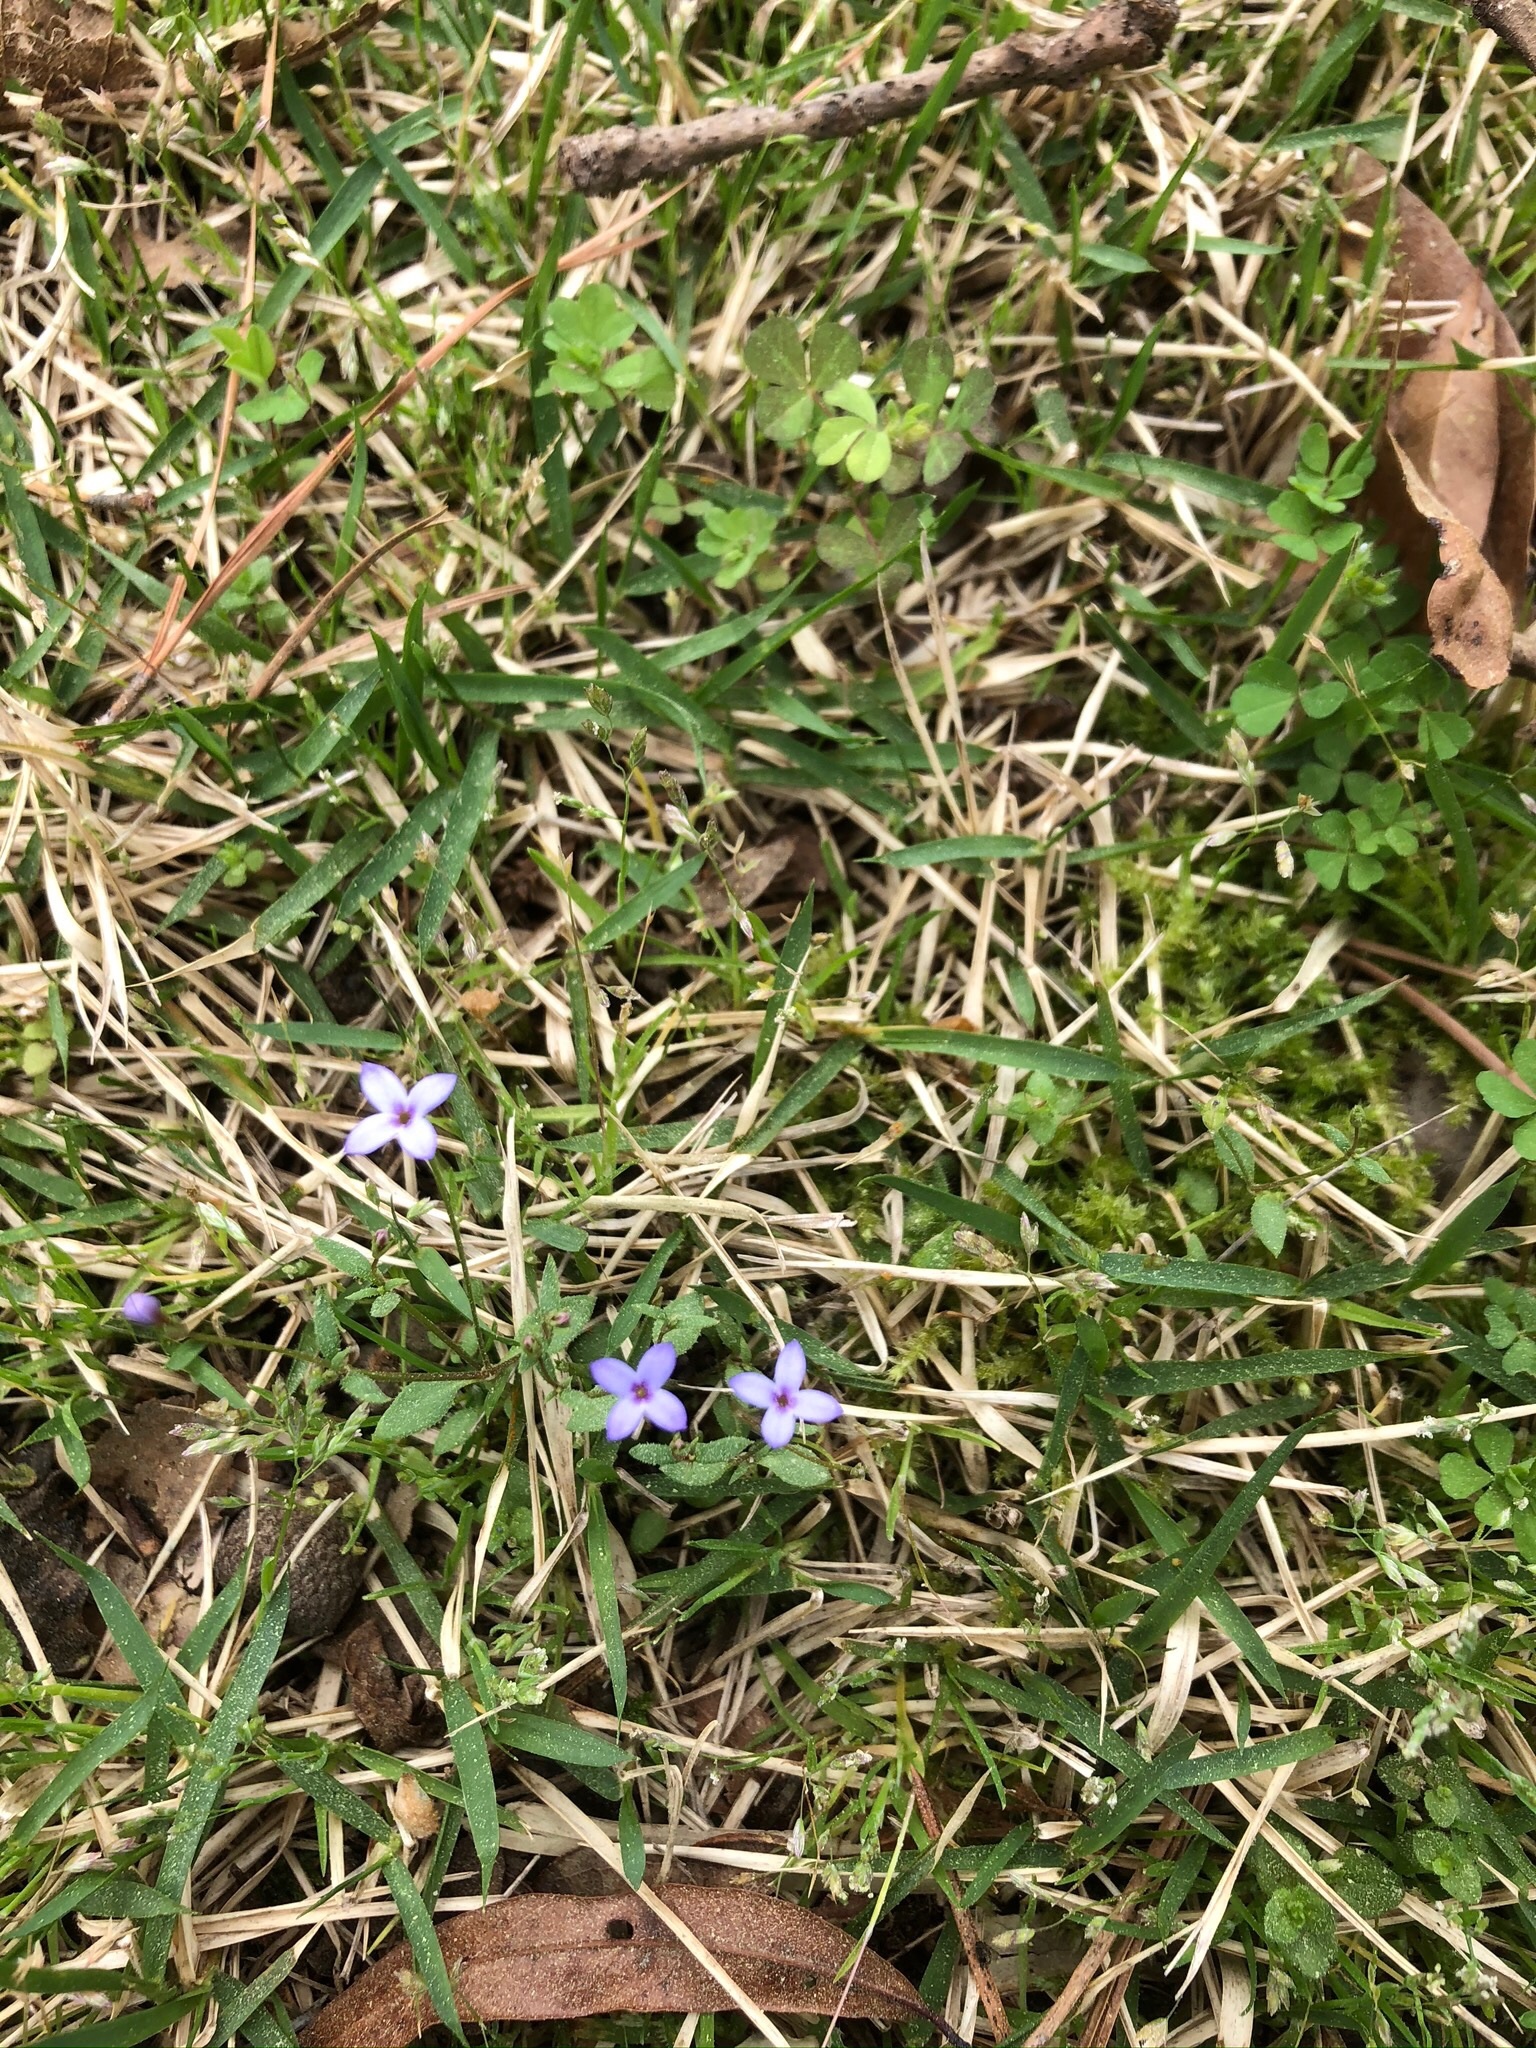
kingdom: Plantae
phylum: Tracheophyta
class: Magnoliopsida
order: Gentianales
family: Rubiaceae
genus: Houstonia
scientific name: Houstonia pusilla
